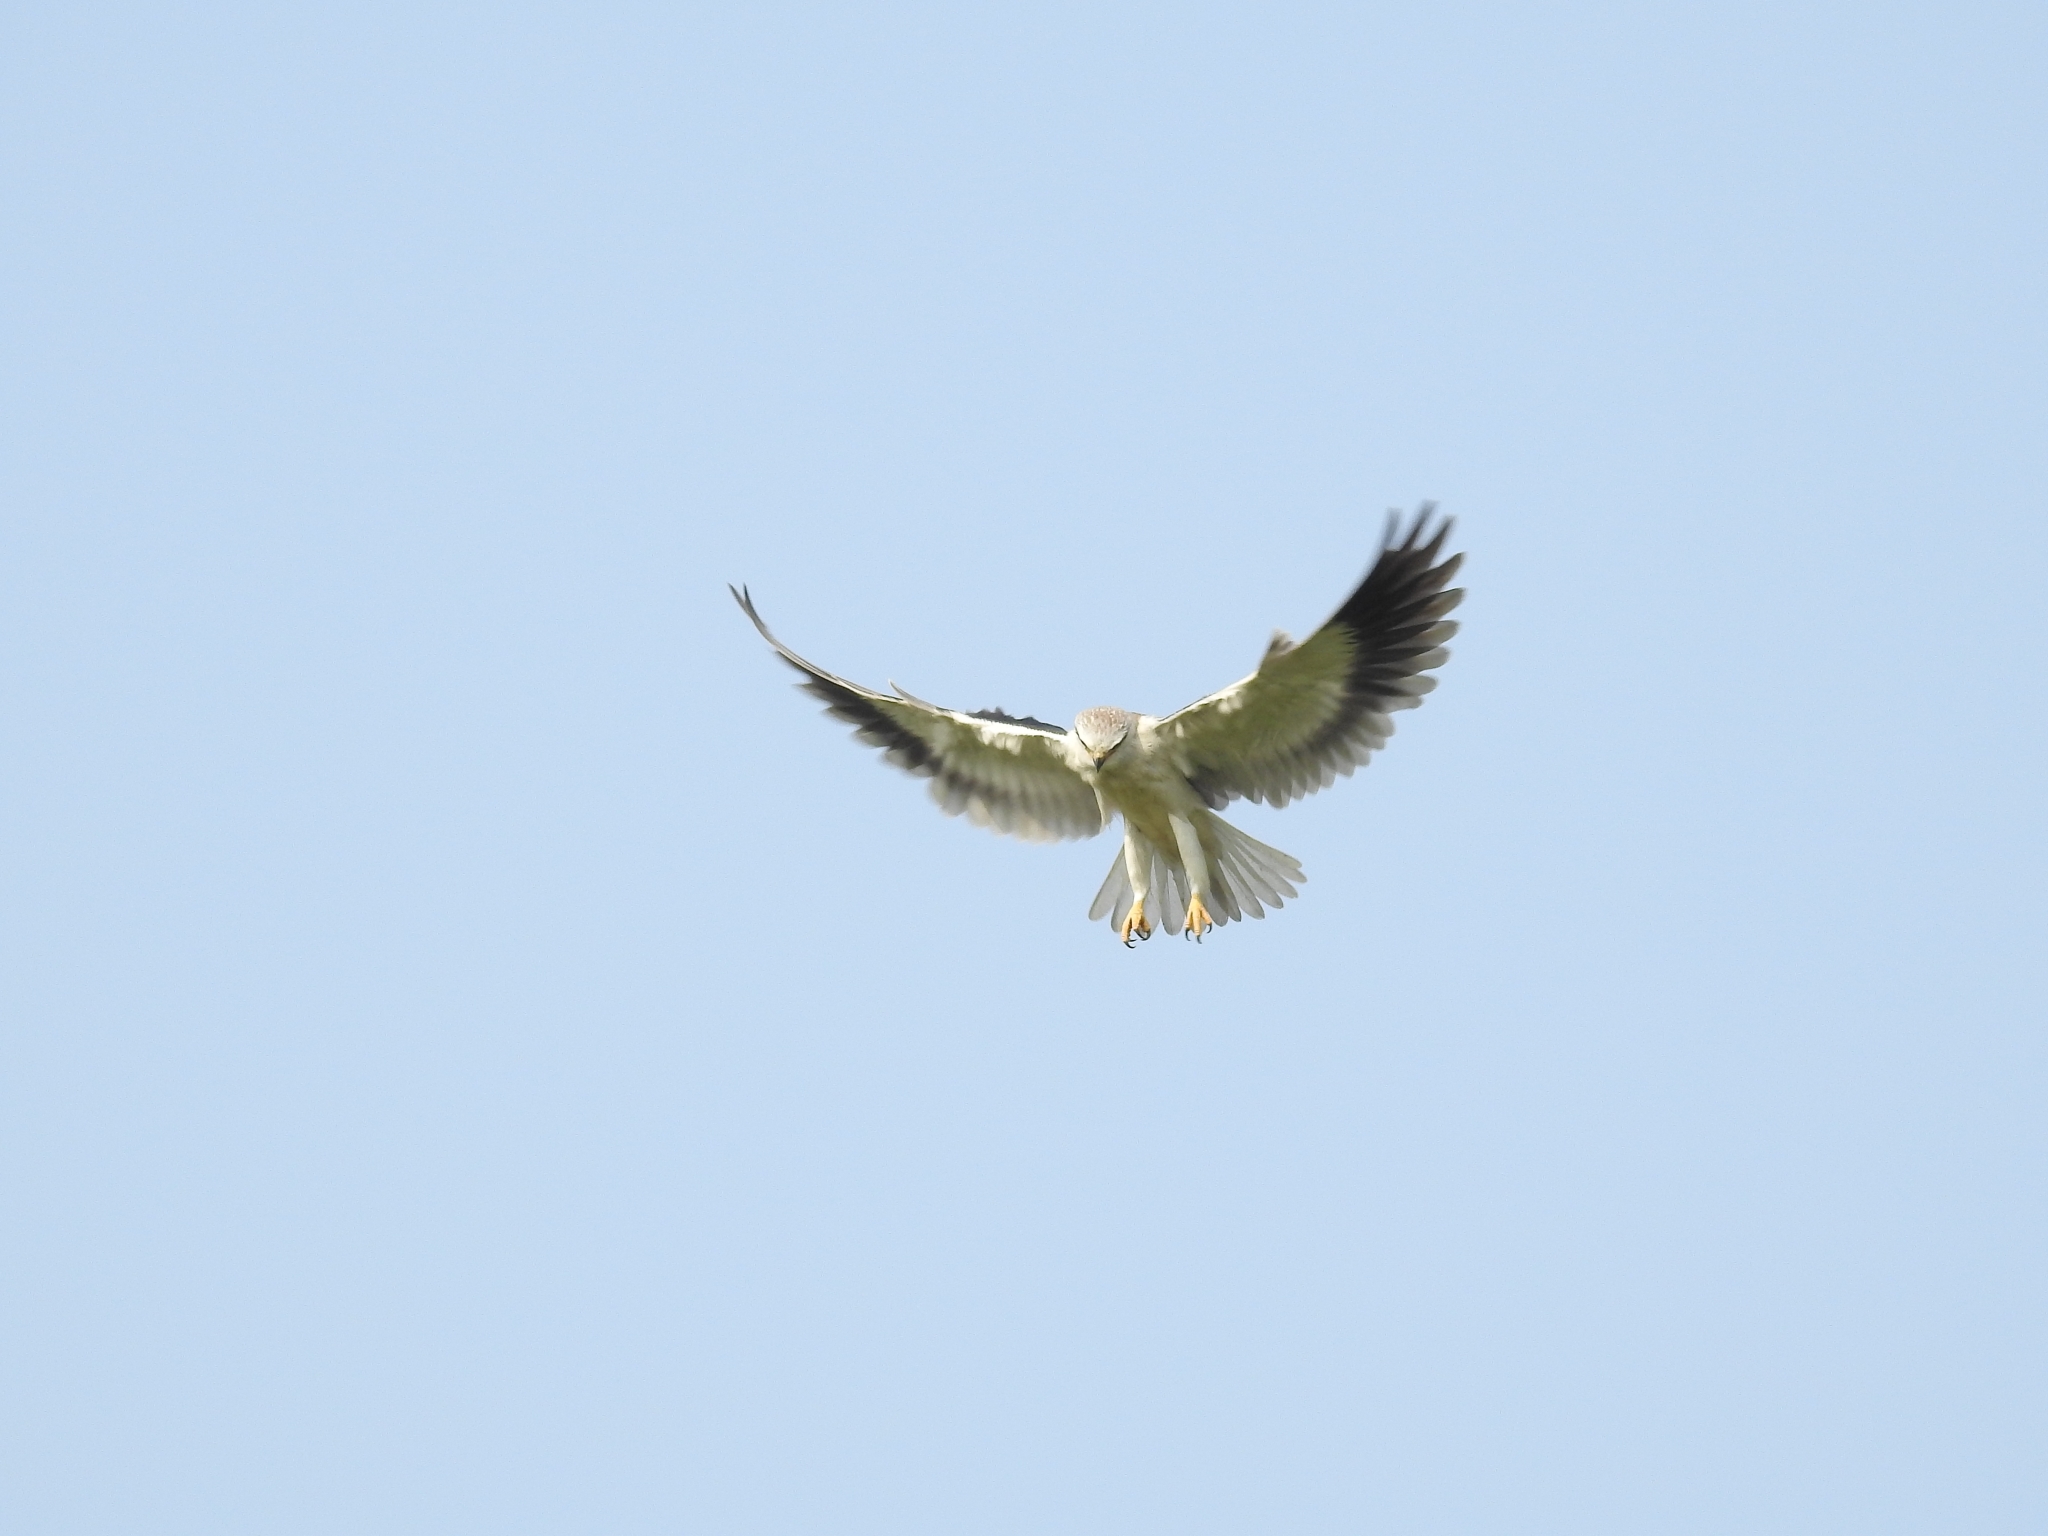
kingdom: Animalia
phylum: Chordata
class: Aves
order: Accipitriformes
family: Accipitridae
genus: Elanus
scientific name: Elanus caeruleus
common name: Black-winged kite
